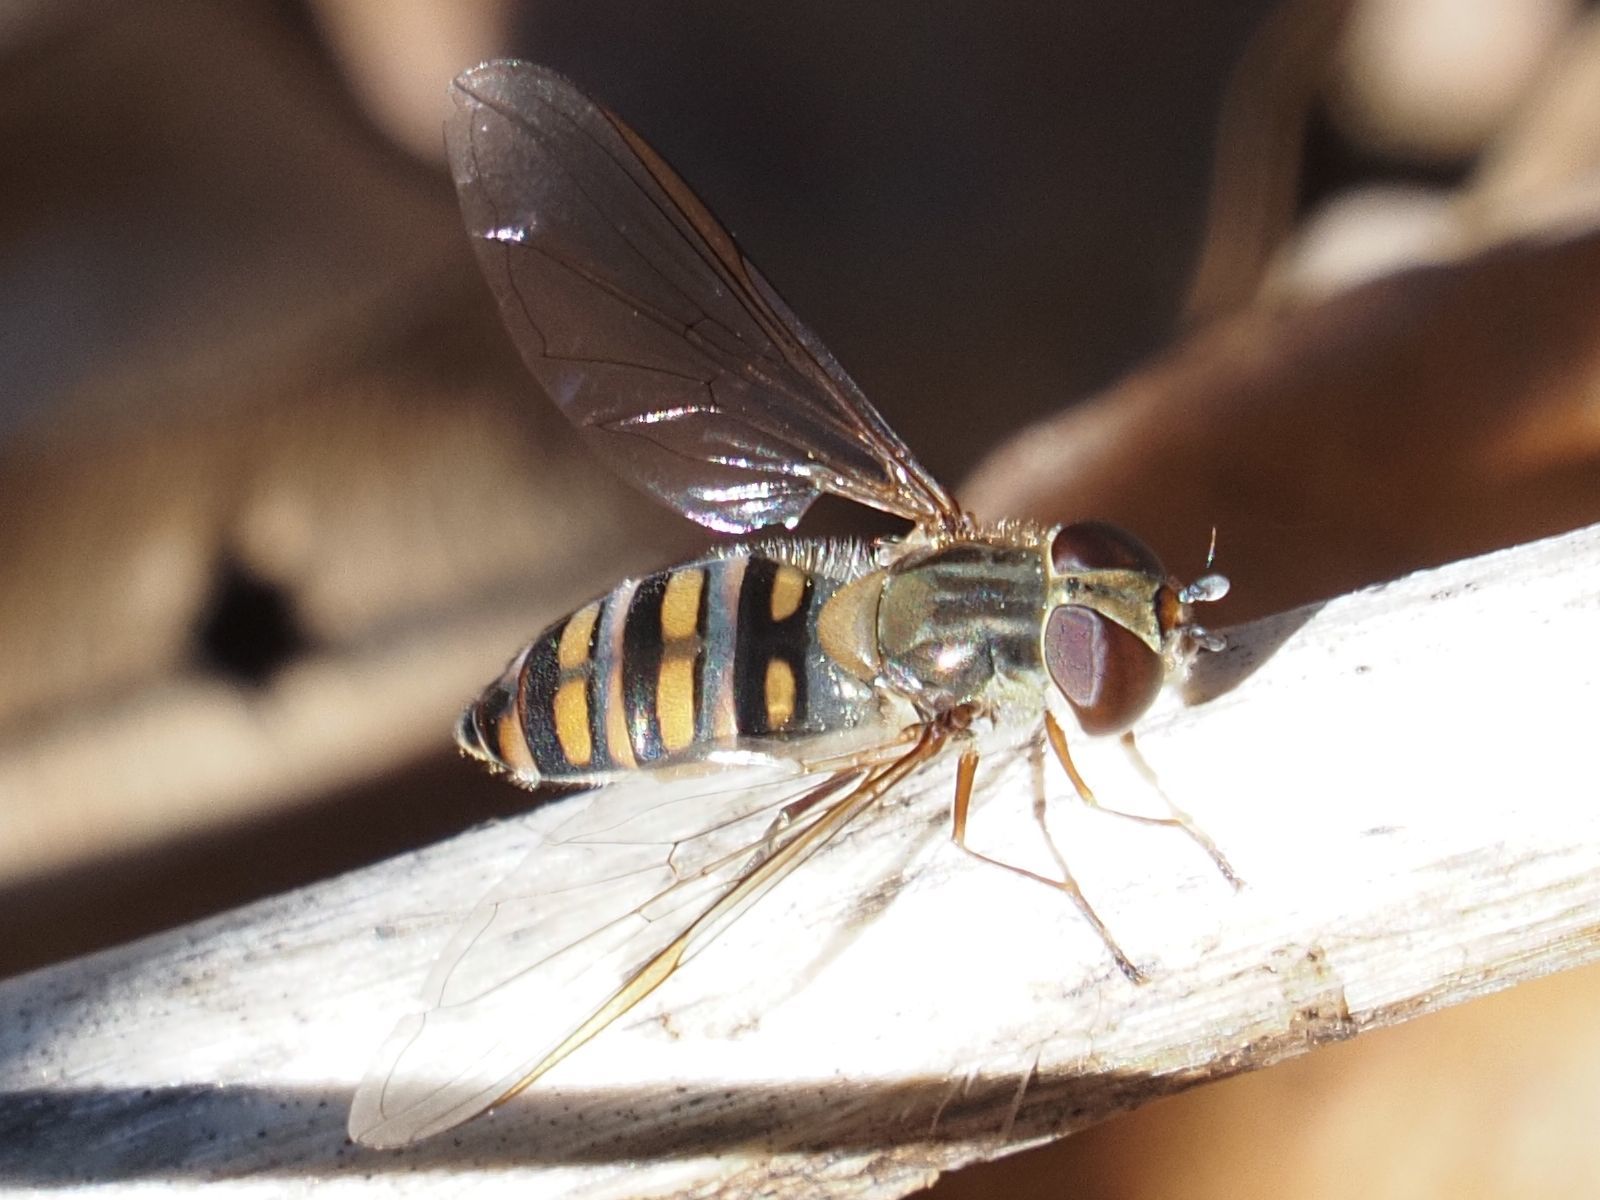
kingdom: Animalia
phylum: Arthropoda
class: Insecta
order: Diptera
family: Syrphidae
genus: Episyrphus
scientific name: Episyrphus balteatus
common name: Marmalade hoverfly
